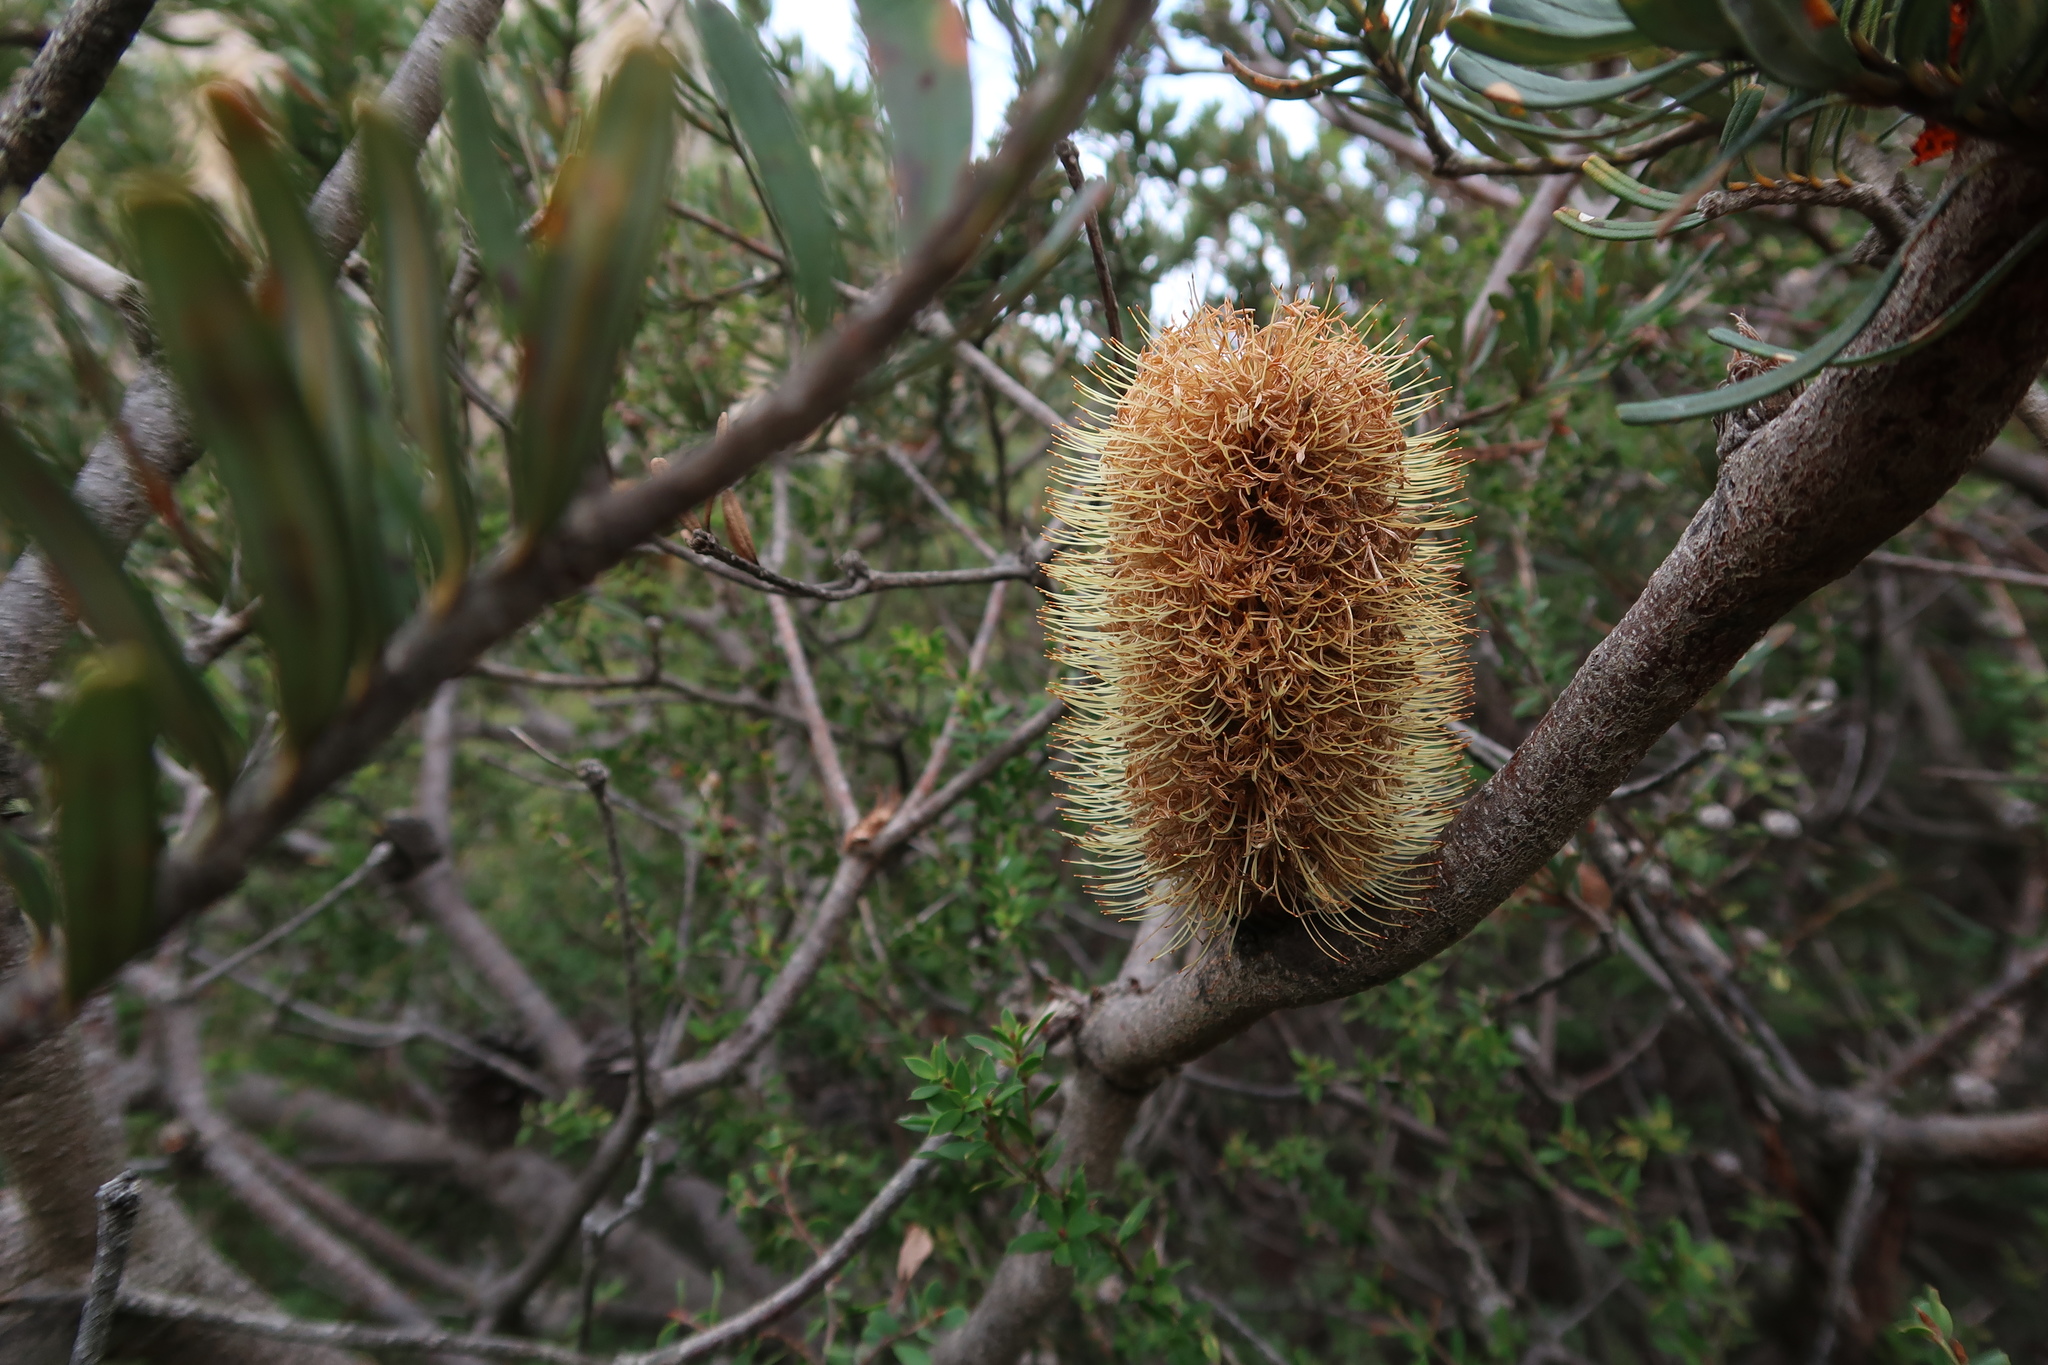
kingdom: Plantae
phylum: Tracheophyta
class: Magnoliopsida
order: Proteales
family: Proteaceae
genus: Banksia
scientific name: Banksia marginata
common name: Silver banksia
